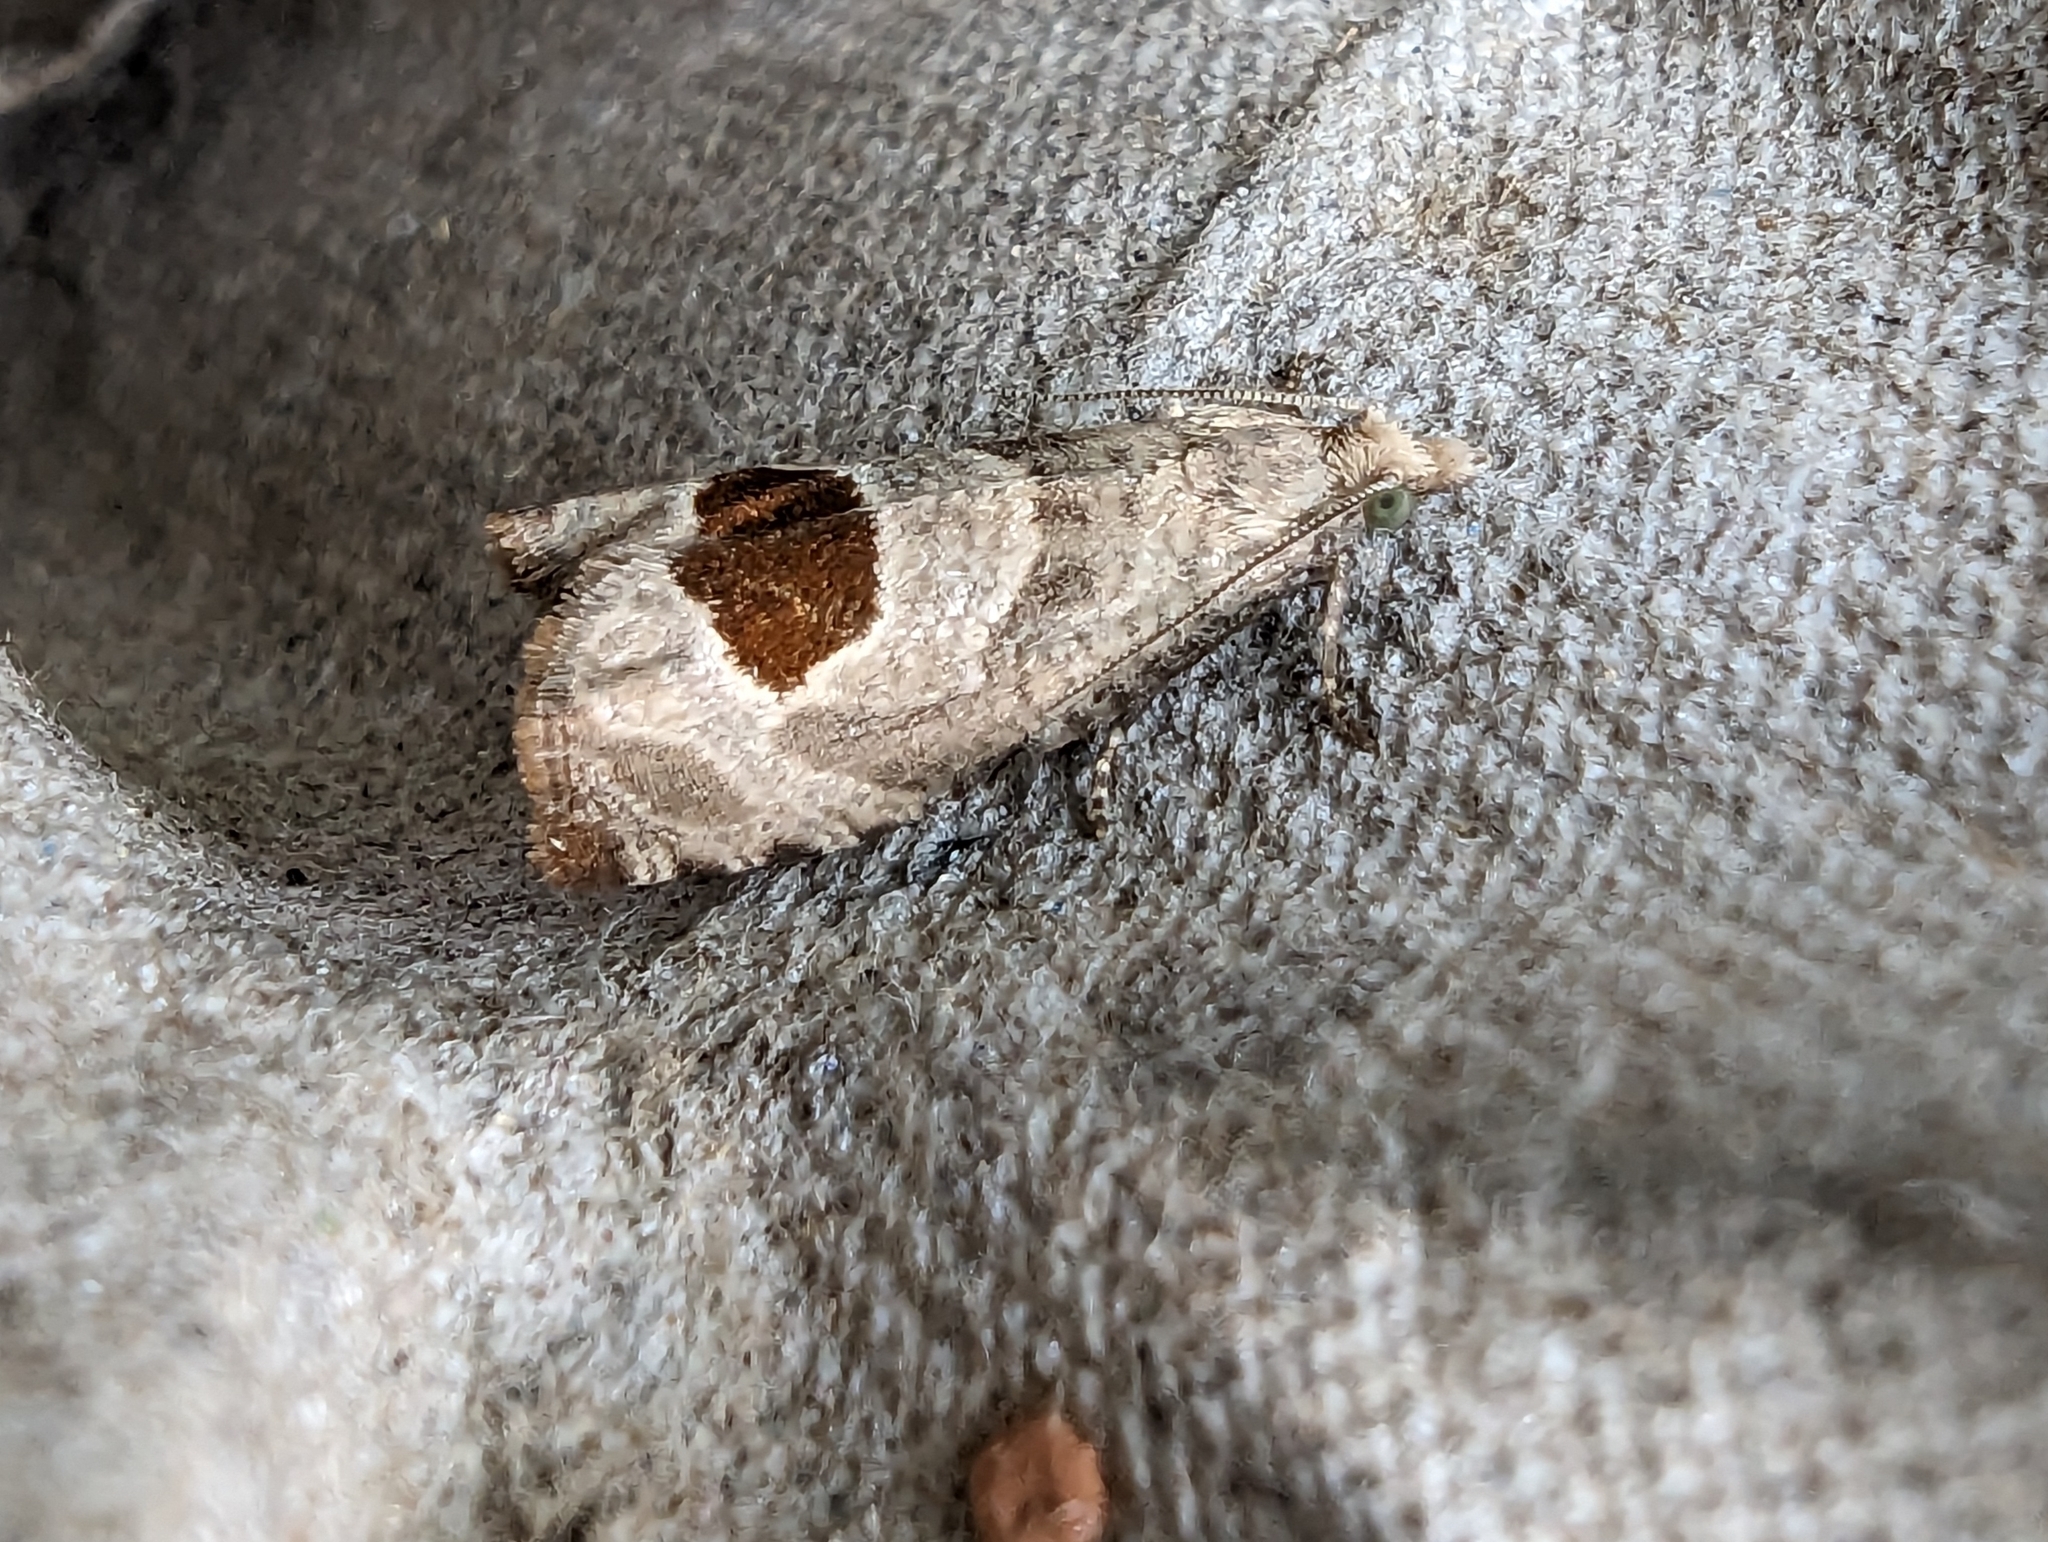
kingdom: Animalia
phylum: Arthropoda
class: Insecta
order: Lepidoptera
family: Tortricidae
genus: Notocelia
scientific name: Notocelia uddmanniana
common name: Bramble shoot moth
